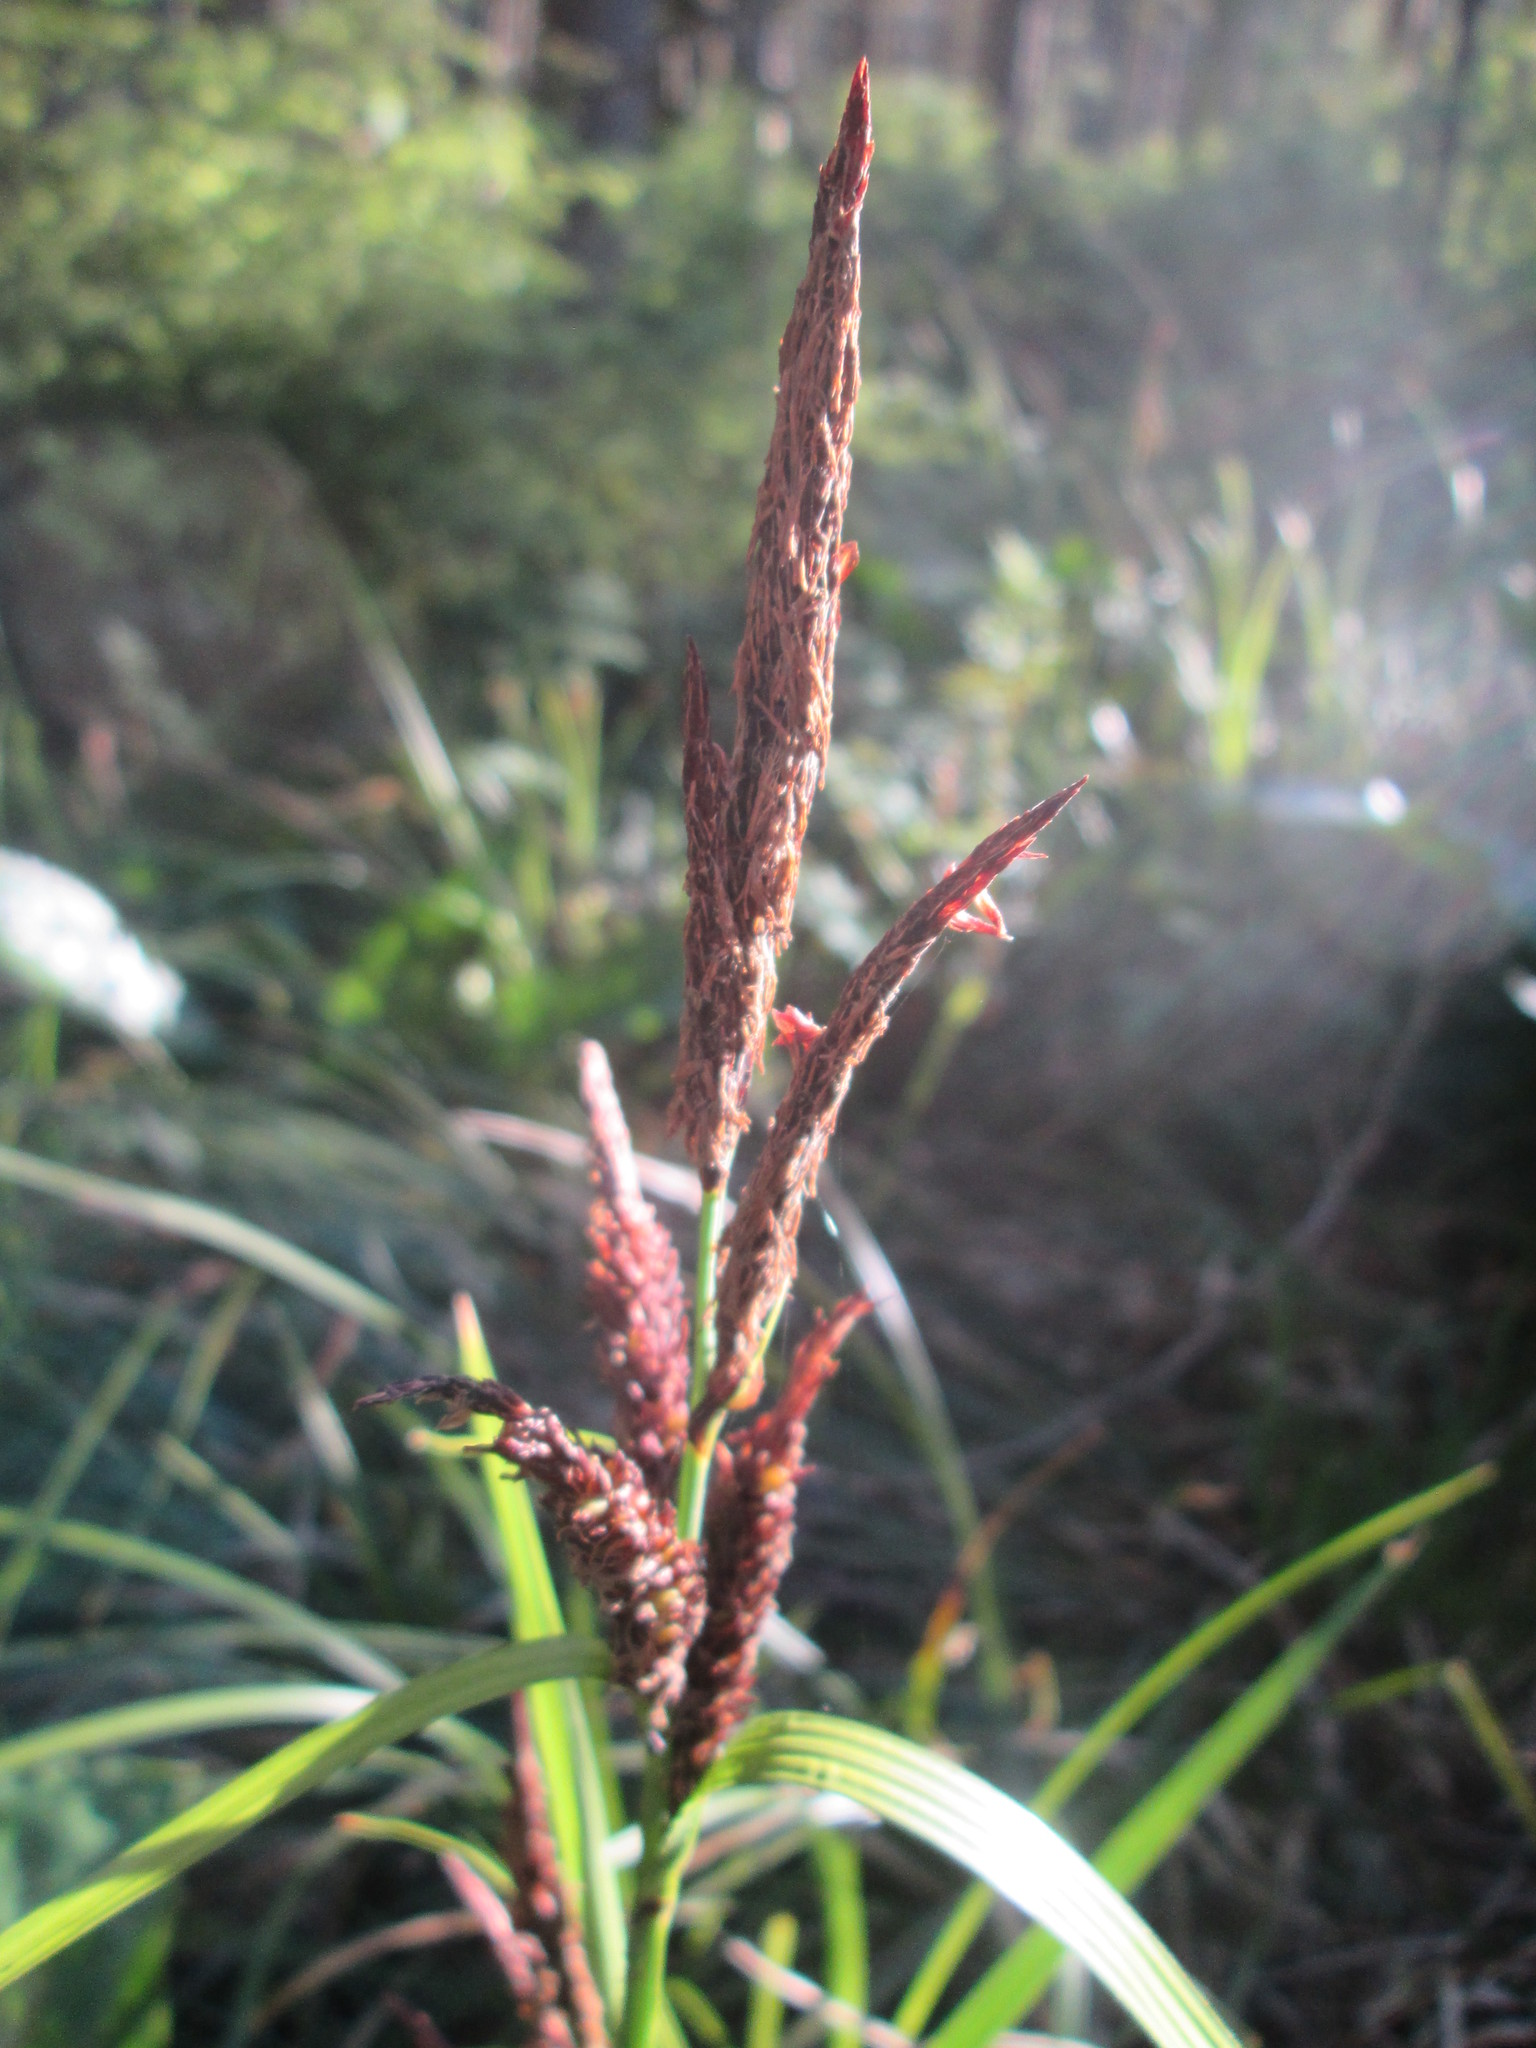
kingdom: Plantae
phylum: Tracheophyta
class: Liliopsida
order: Poales
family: Cyperaceae
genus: Carex
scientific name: Carex obnupta
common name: Slough sedge
